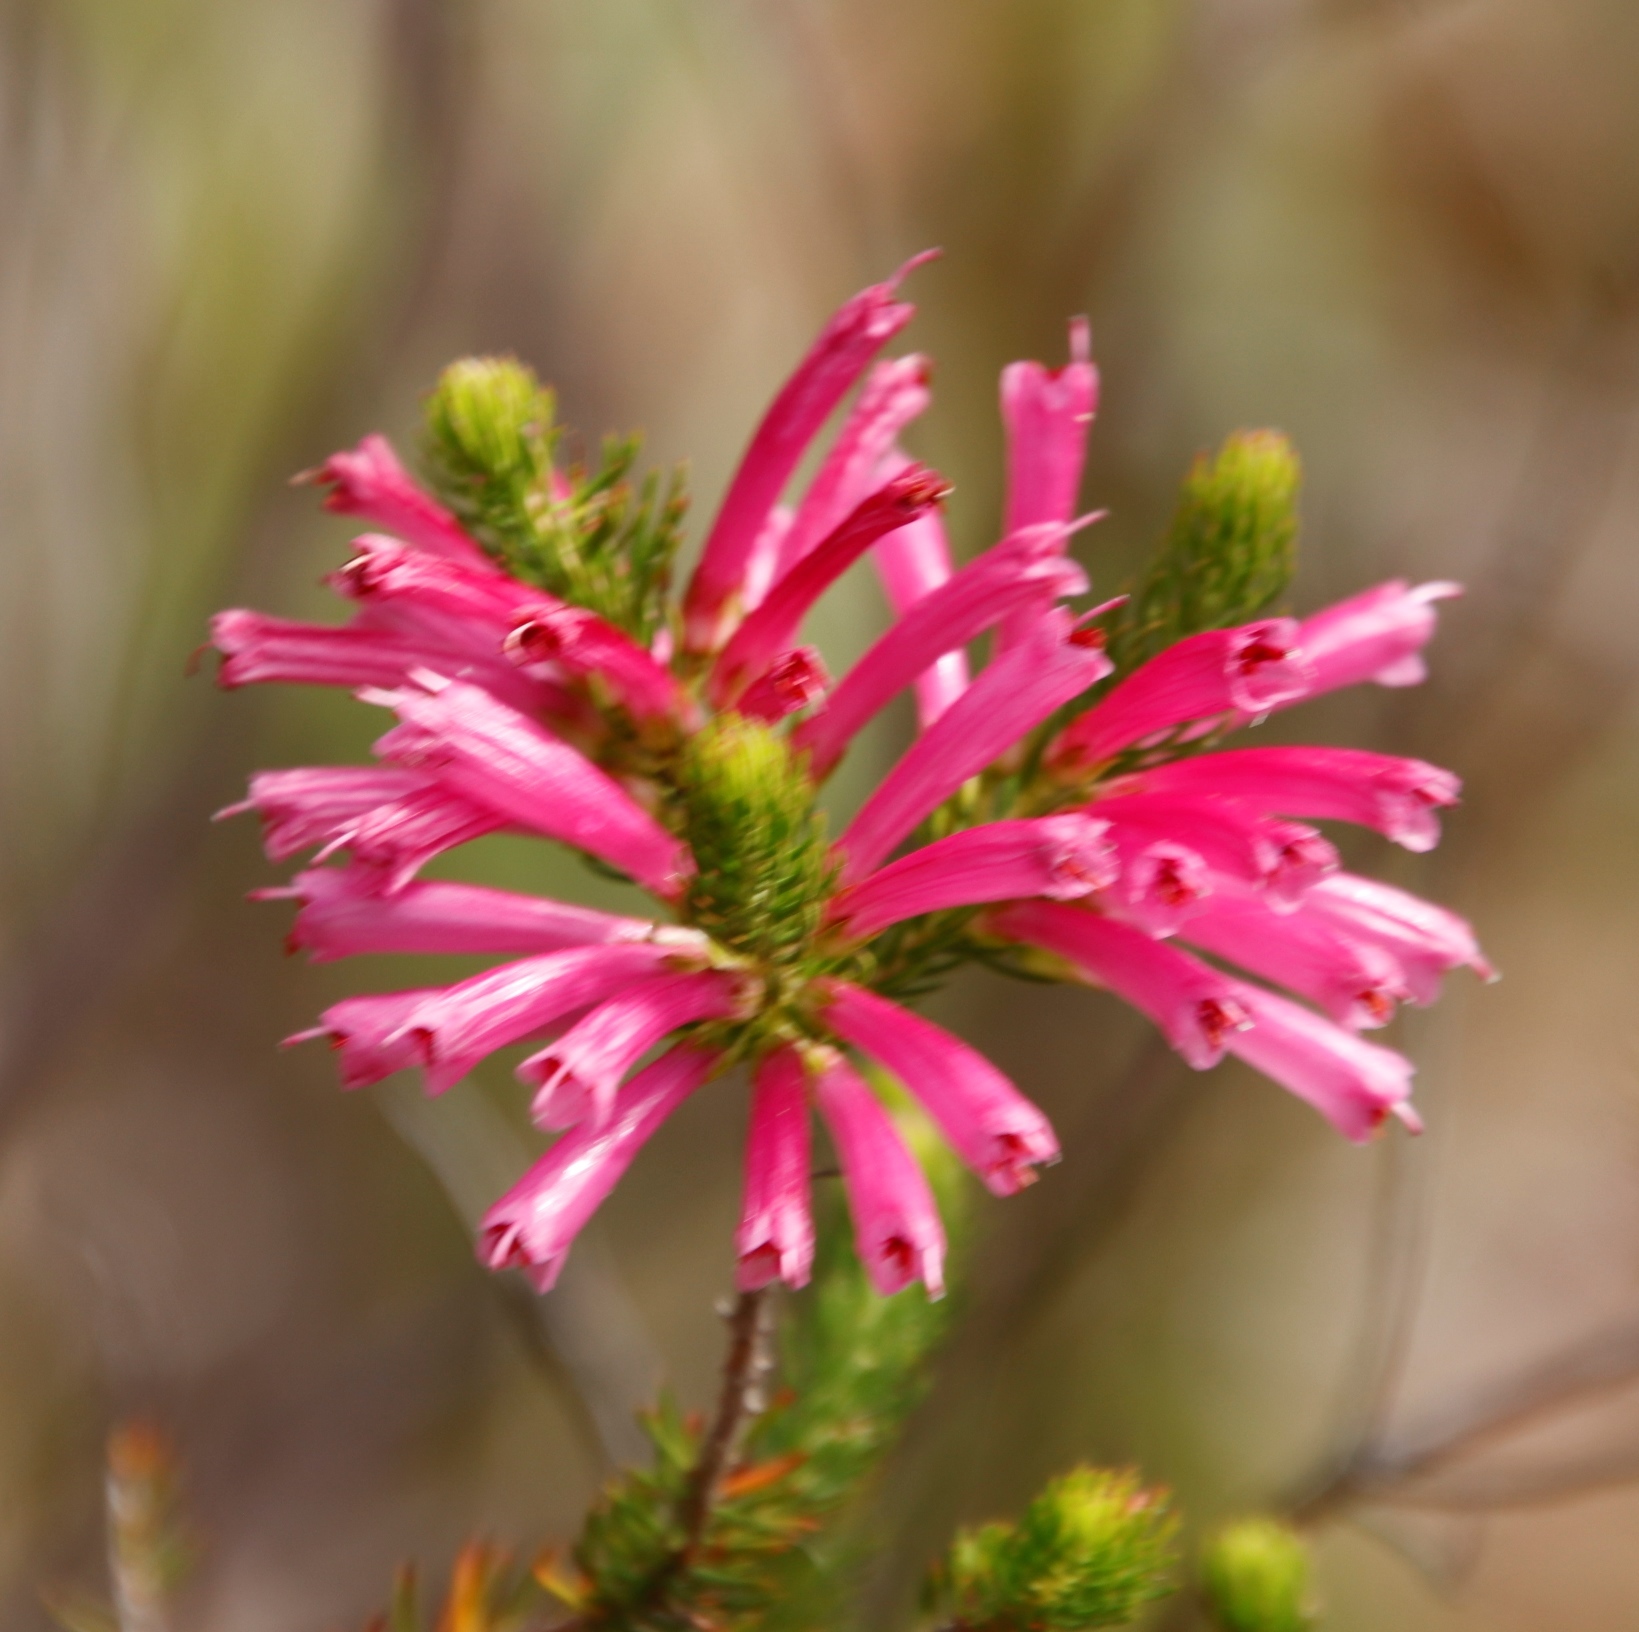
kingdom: Plantae
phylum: Tracheophyta
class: Magnoliopsida
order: Ericales
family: Ericaceae
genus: Erica
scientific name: Erica abietina
